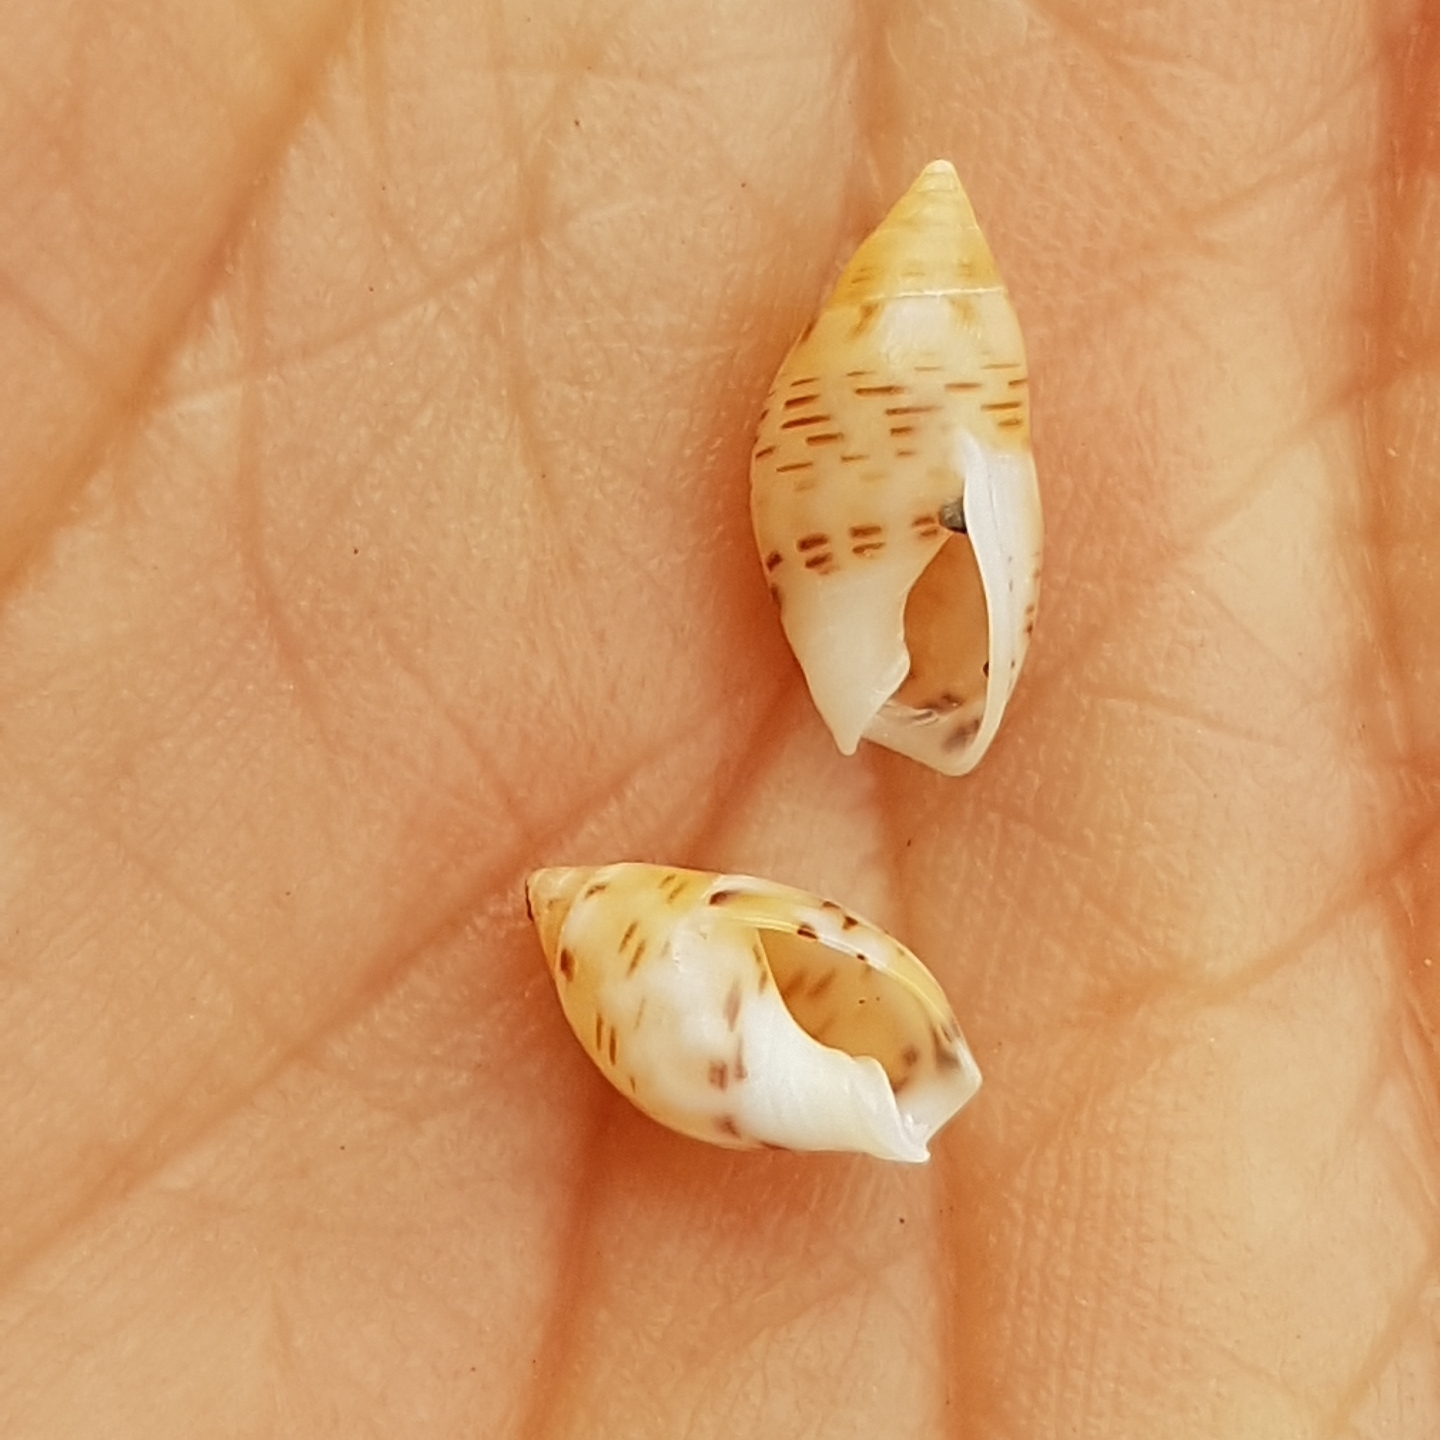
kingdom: Animalia
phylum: Mollusca
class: Gastropoda
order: Neogastropoda
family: Nassariidae
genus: Tritia
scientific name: Tritia grana
